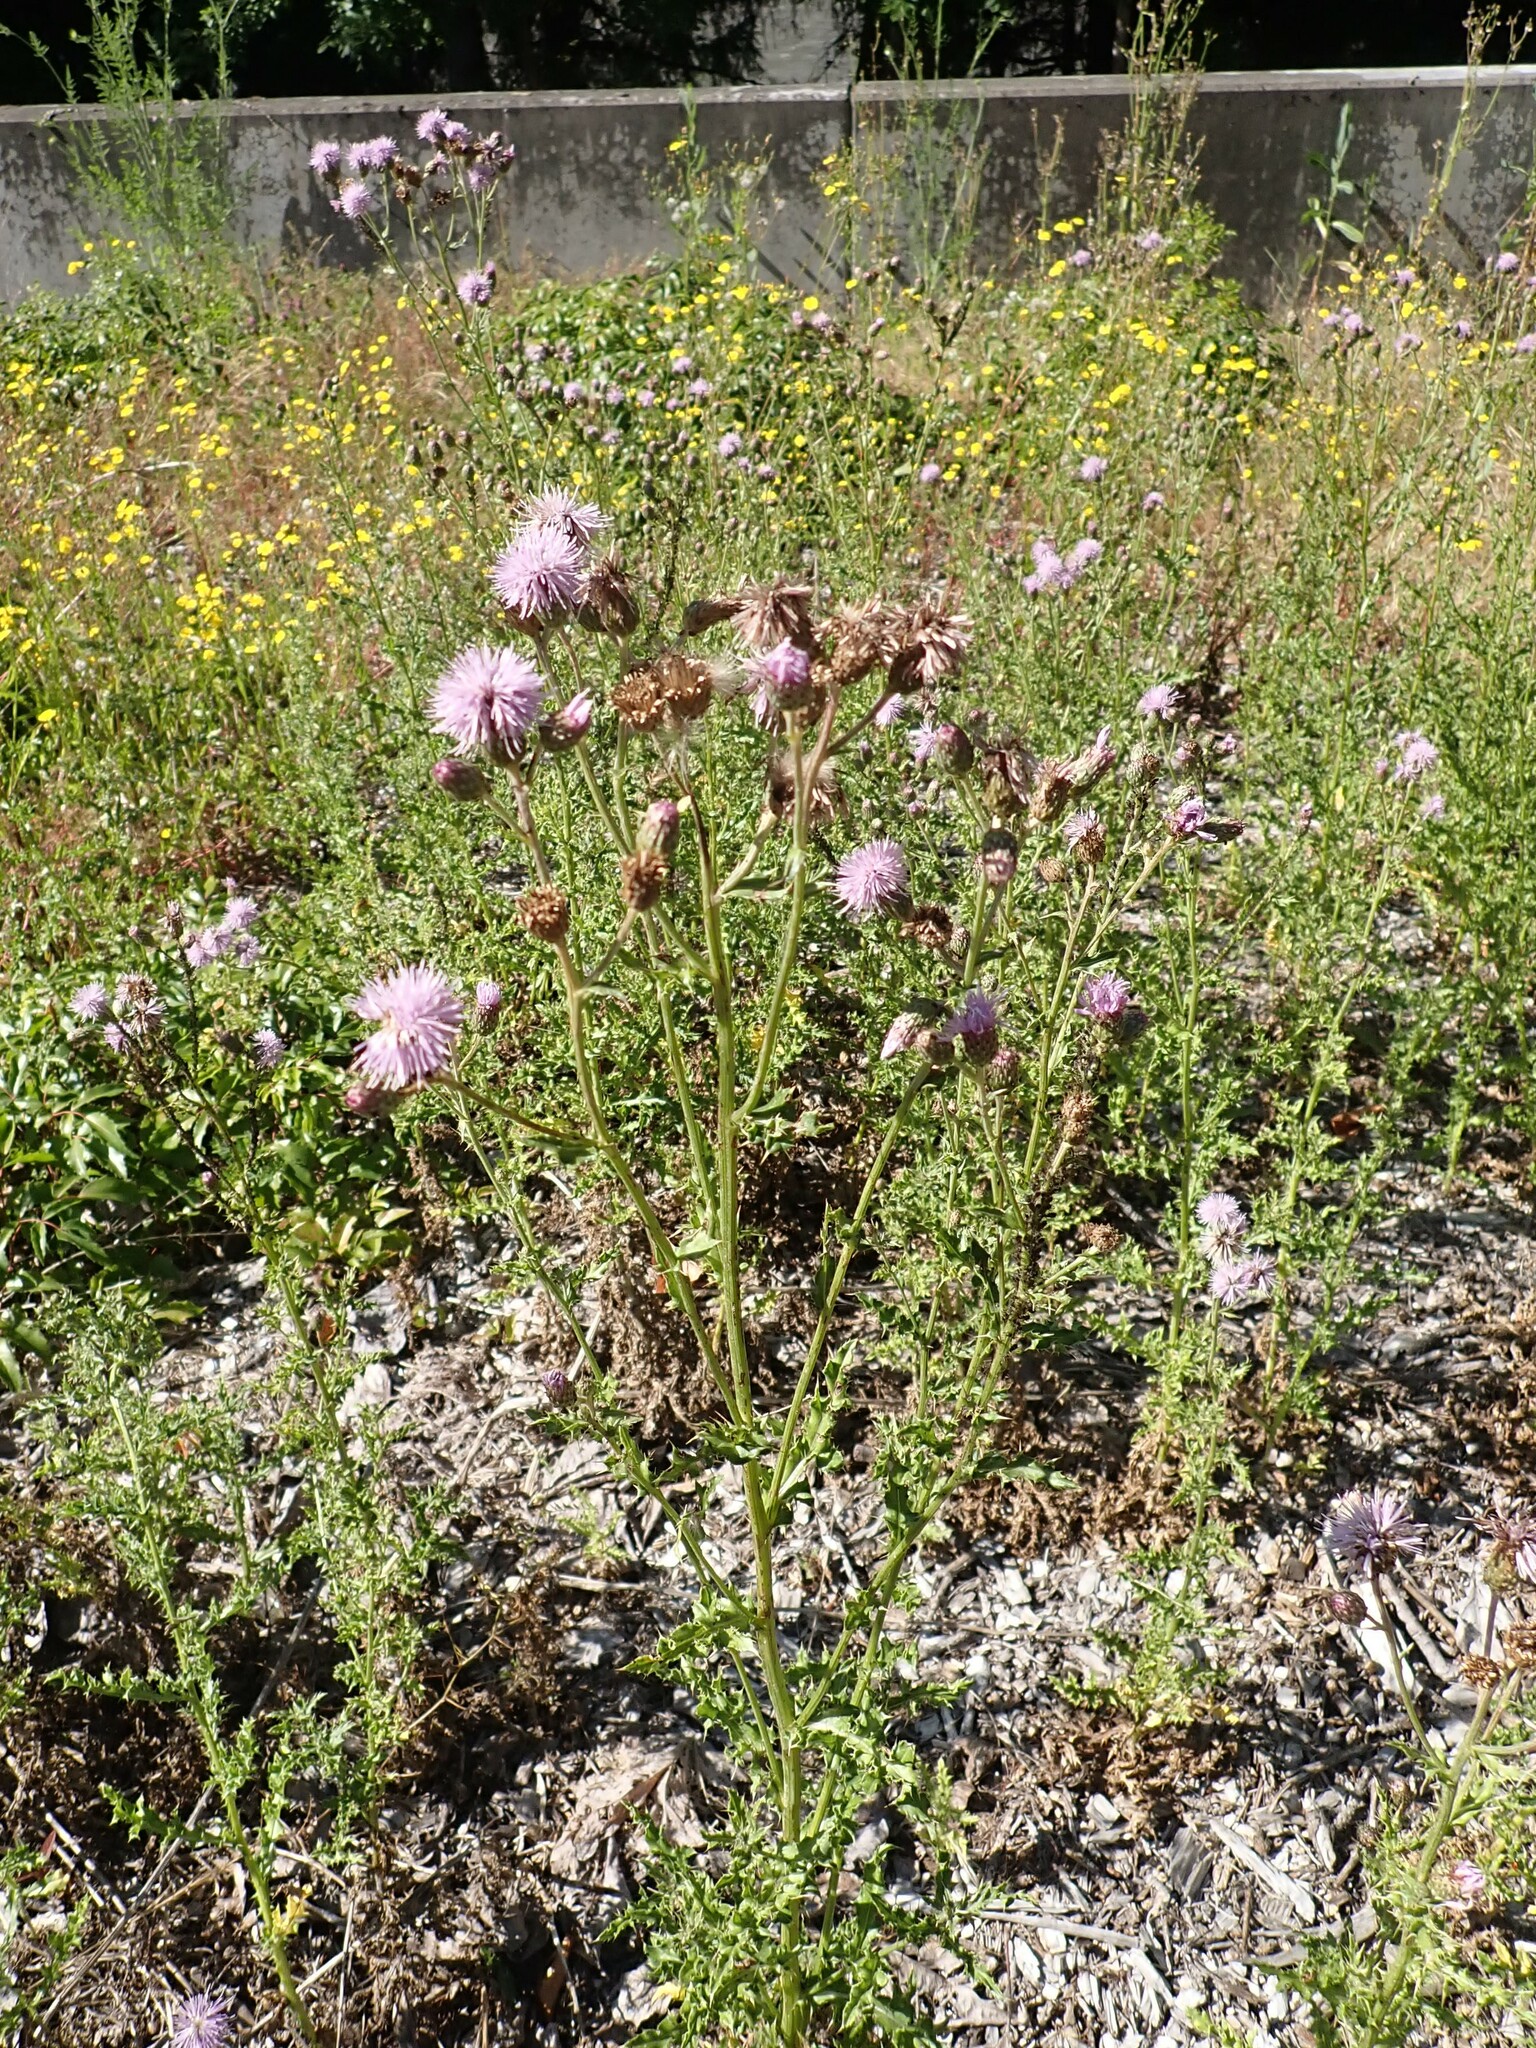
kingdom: Plantae
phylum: Tracheophyta
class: Magnoliopsida
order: Asterales
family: Asteraceae
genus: Cirsium
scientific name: Cirsium arvense
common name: Creeping thistle
